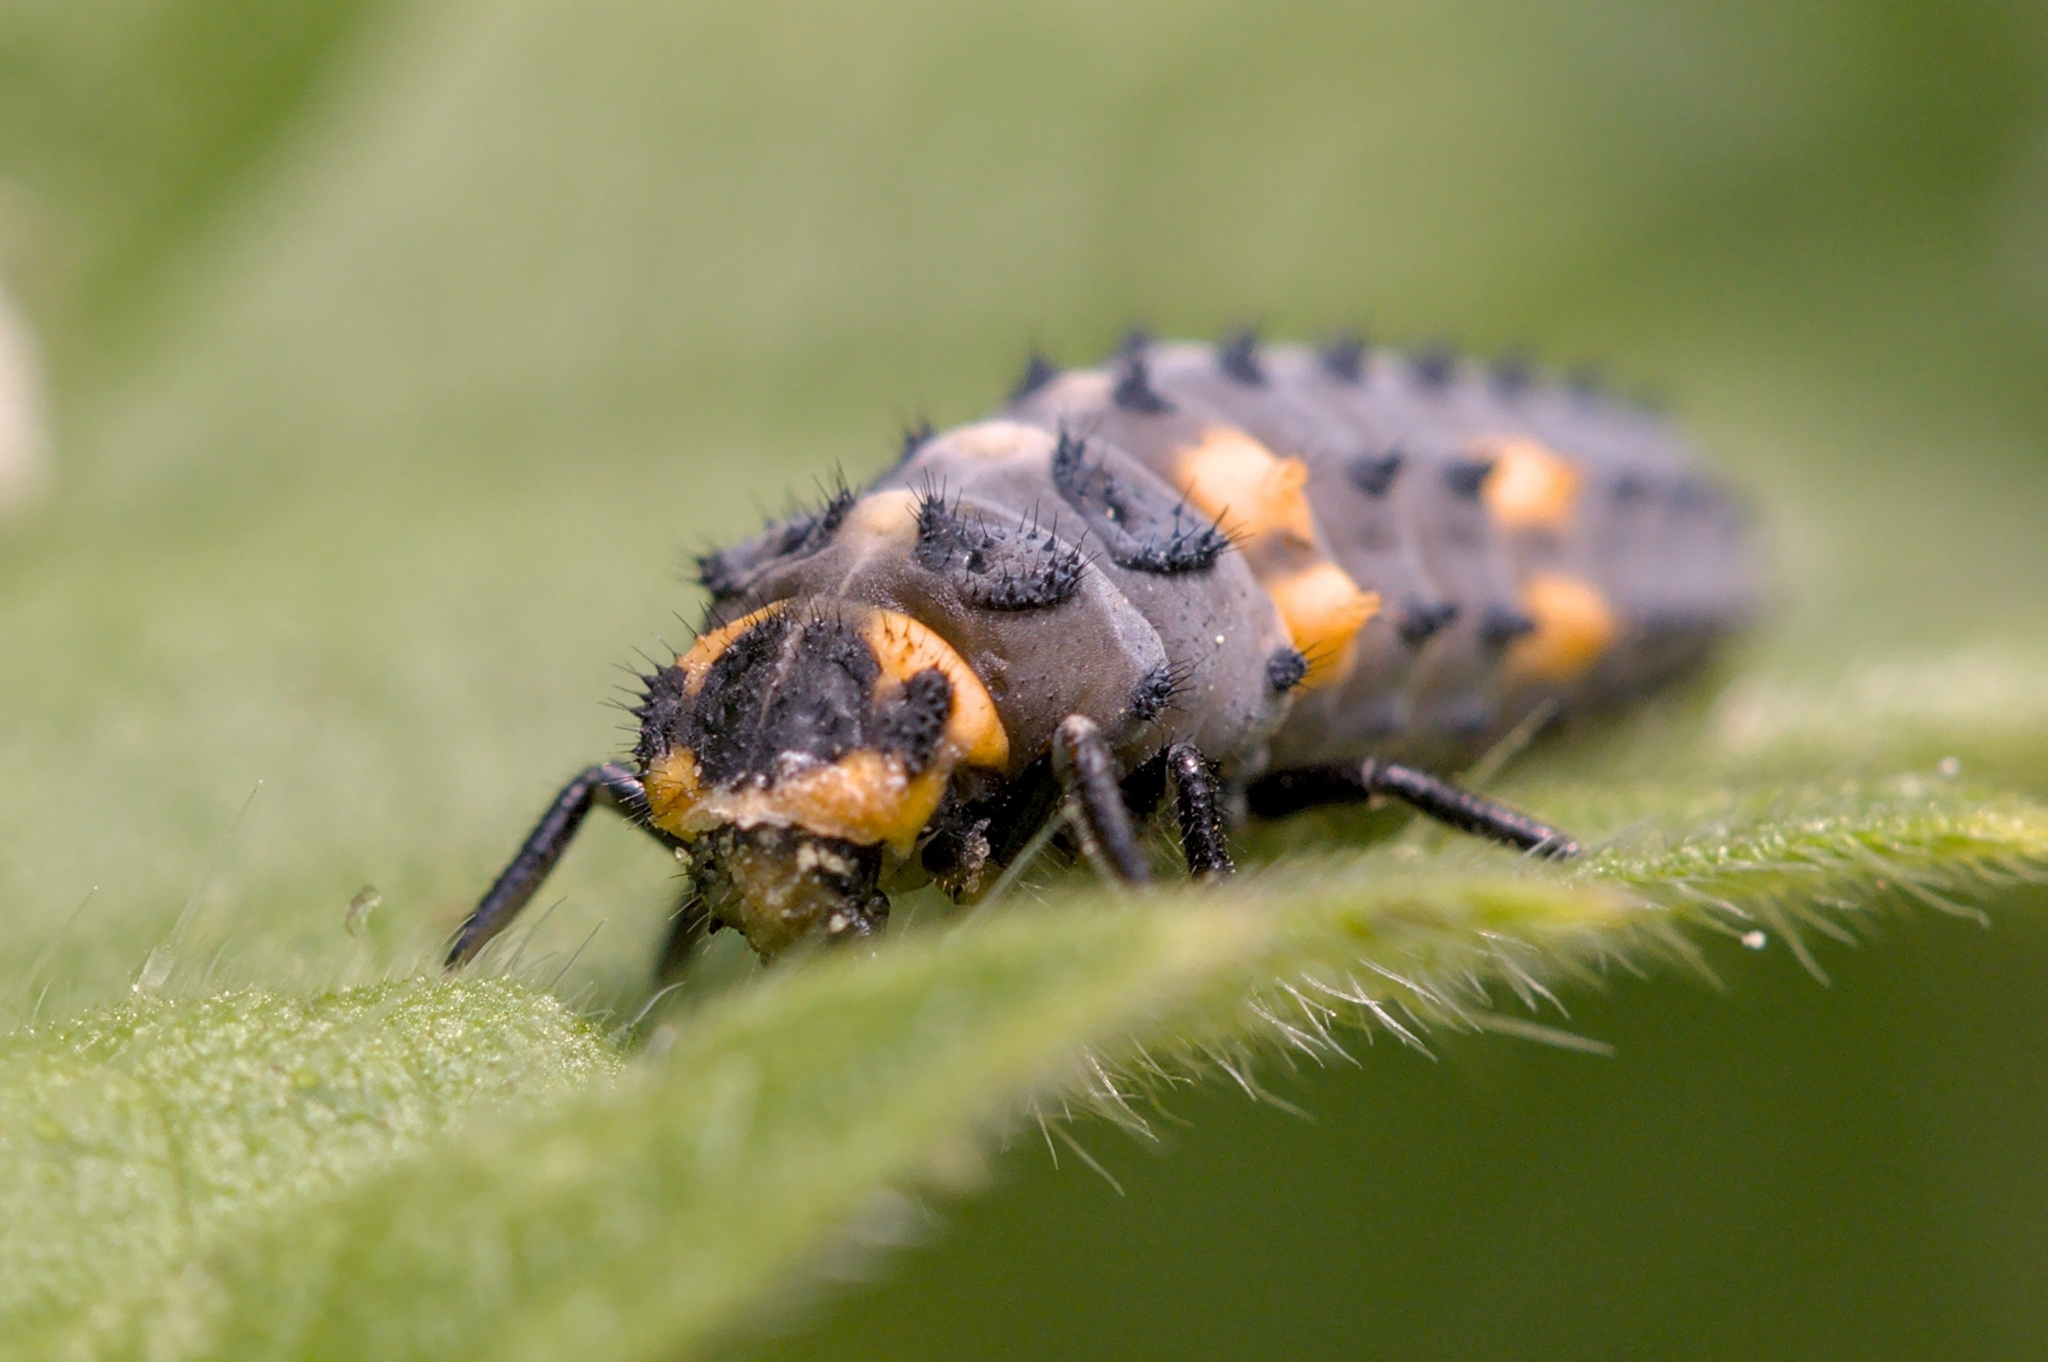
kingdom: Animalia
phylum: Arthropoda
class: Insecta
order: Coleoptera
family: Coccinellidae
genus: Coccinella
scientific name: Coccinella septempunctata
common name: Sevenspotted lady beetle
